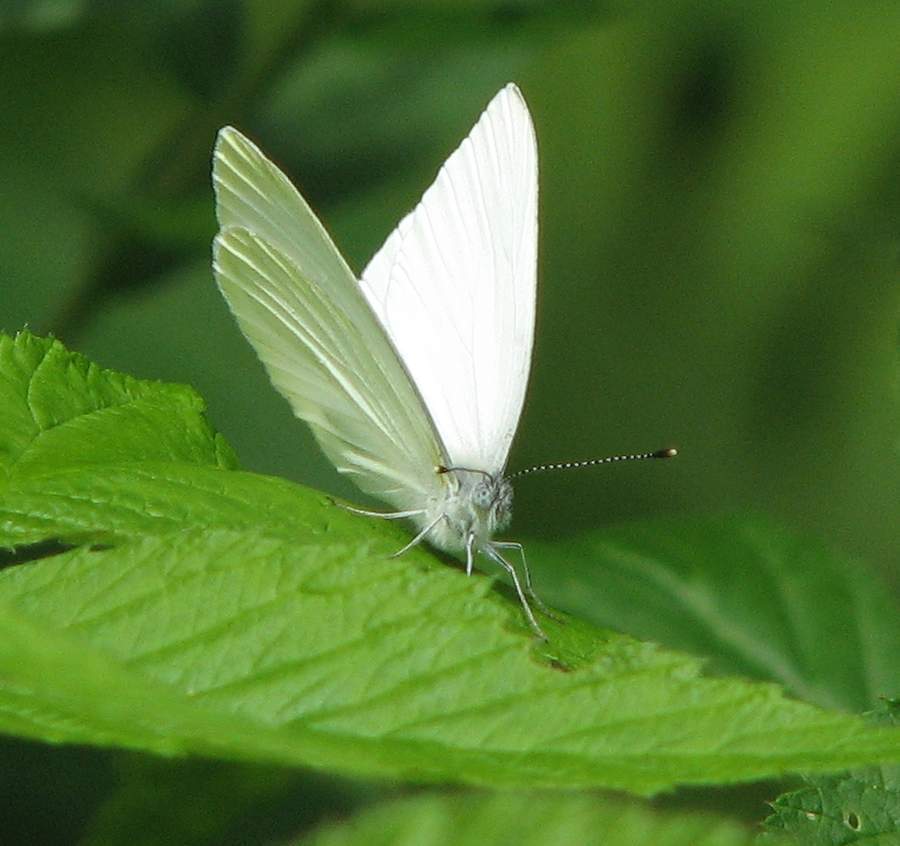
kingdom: Animalia
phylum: Arthropoda
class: Insecta
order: Lepidoptera
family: Pieridae
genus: Pieris
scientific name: Pieris oleracea
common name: Mustard white
